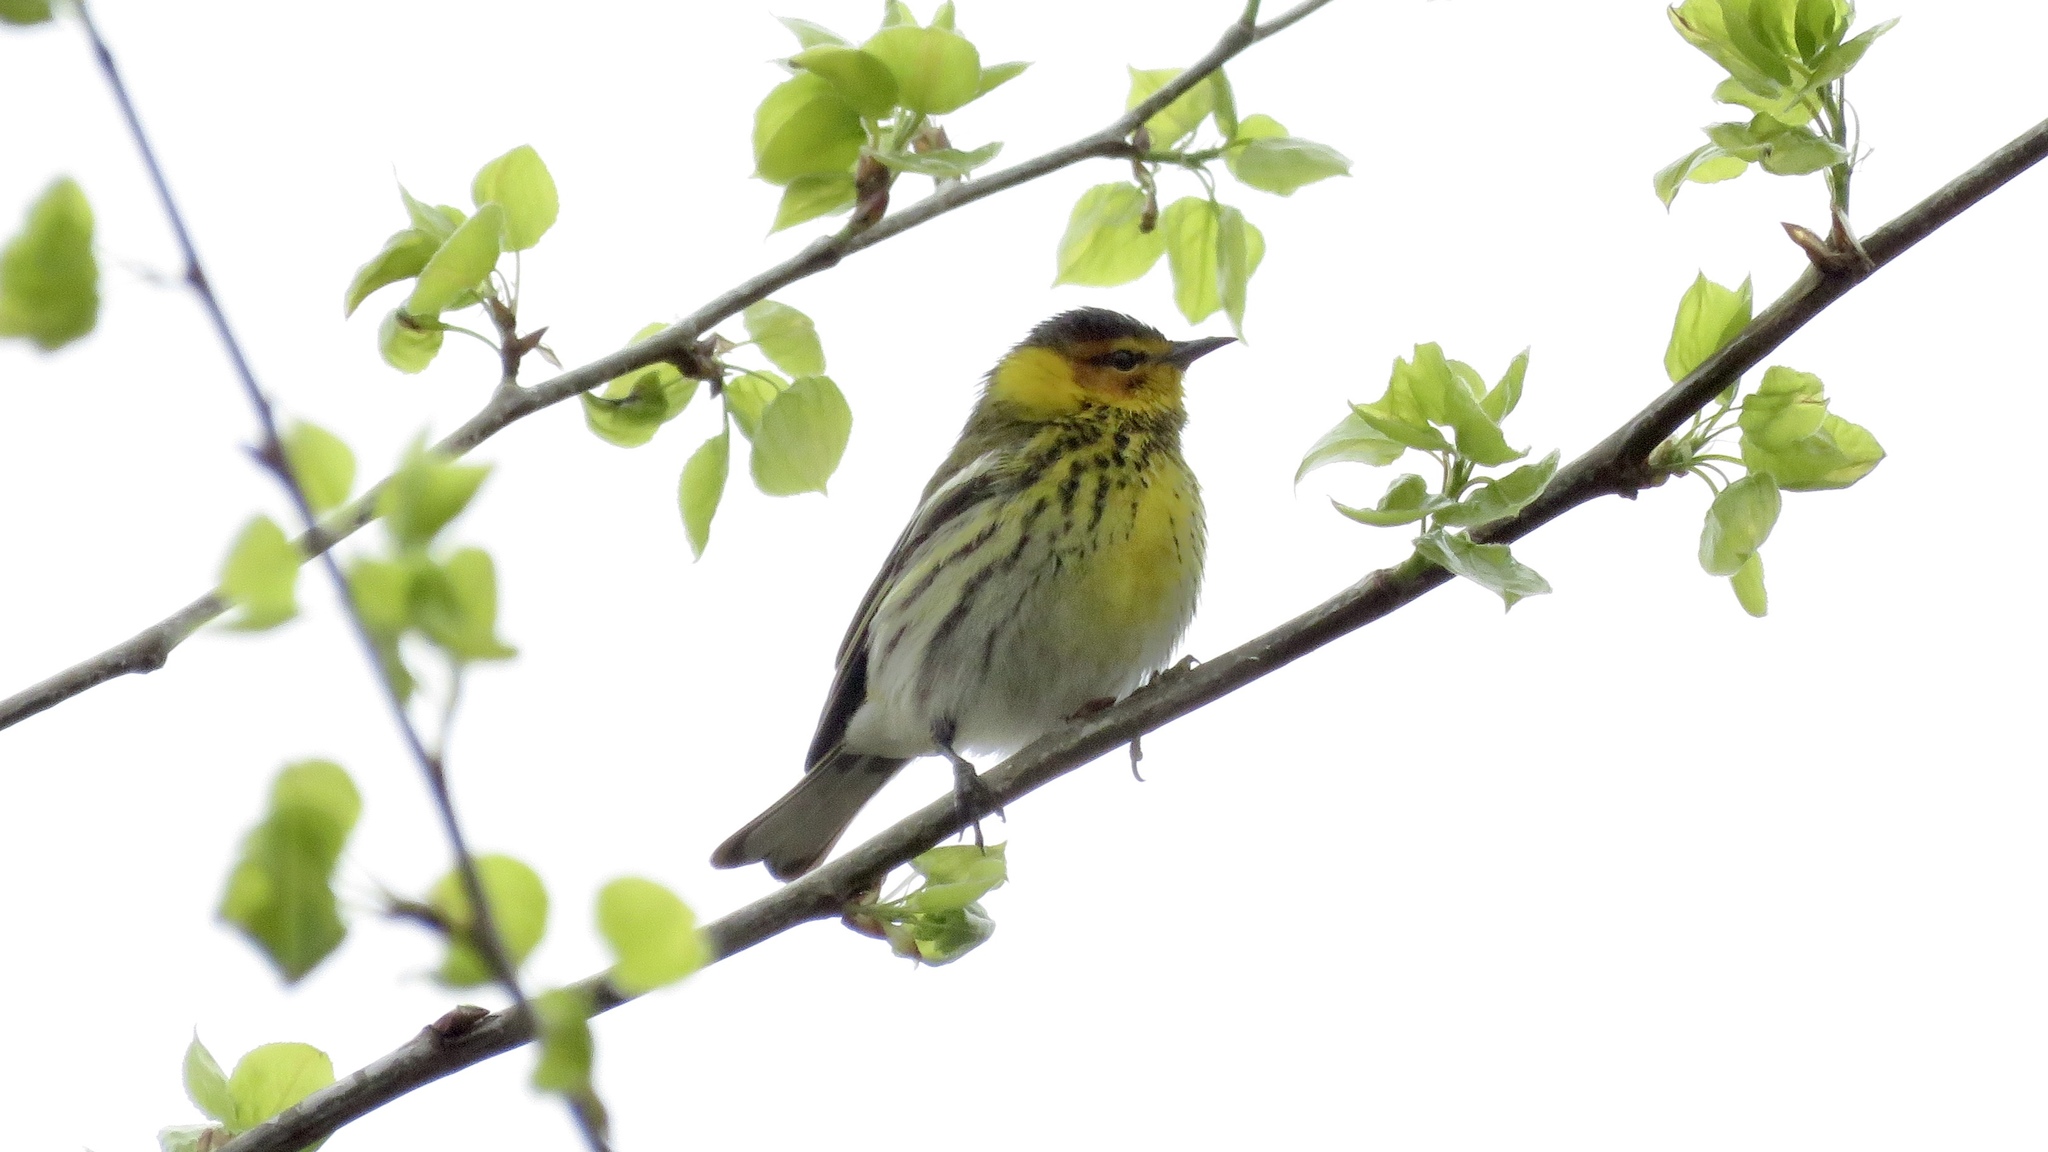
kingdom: Animalia
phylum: Chordata
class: Aves
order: Passeriformes
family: Parulidae
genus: Setophaga
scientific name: Setophaga tigrina
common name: Cape may warbler
